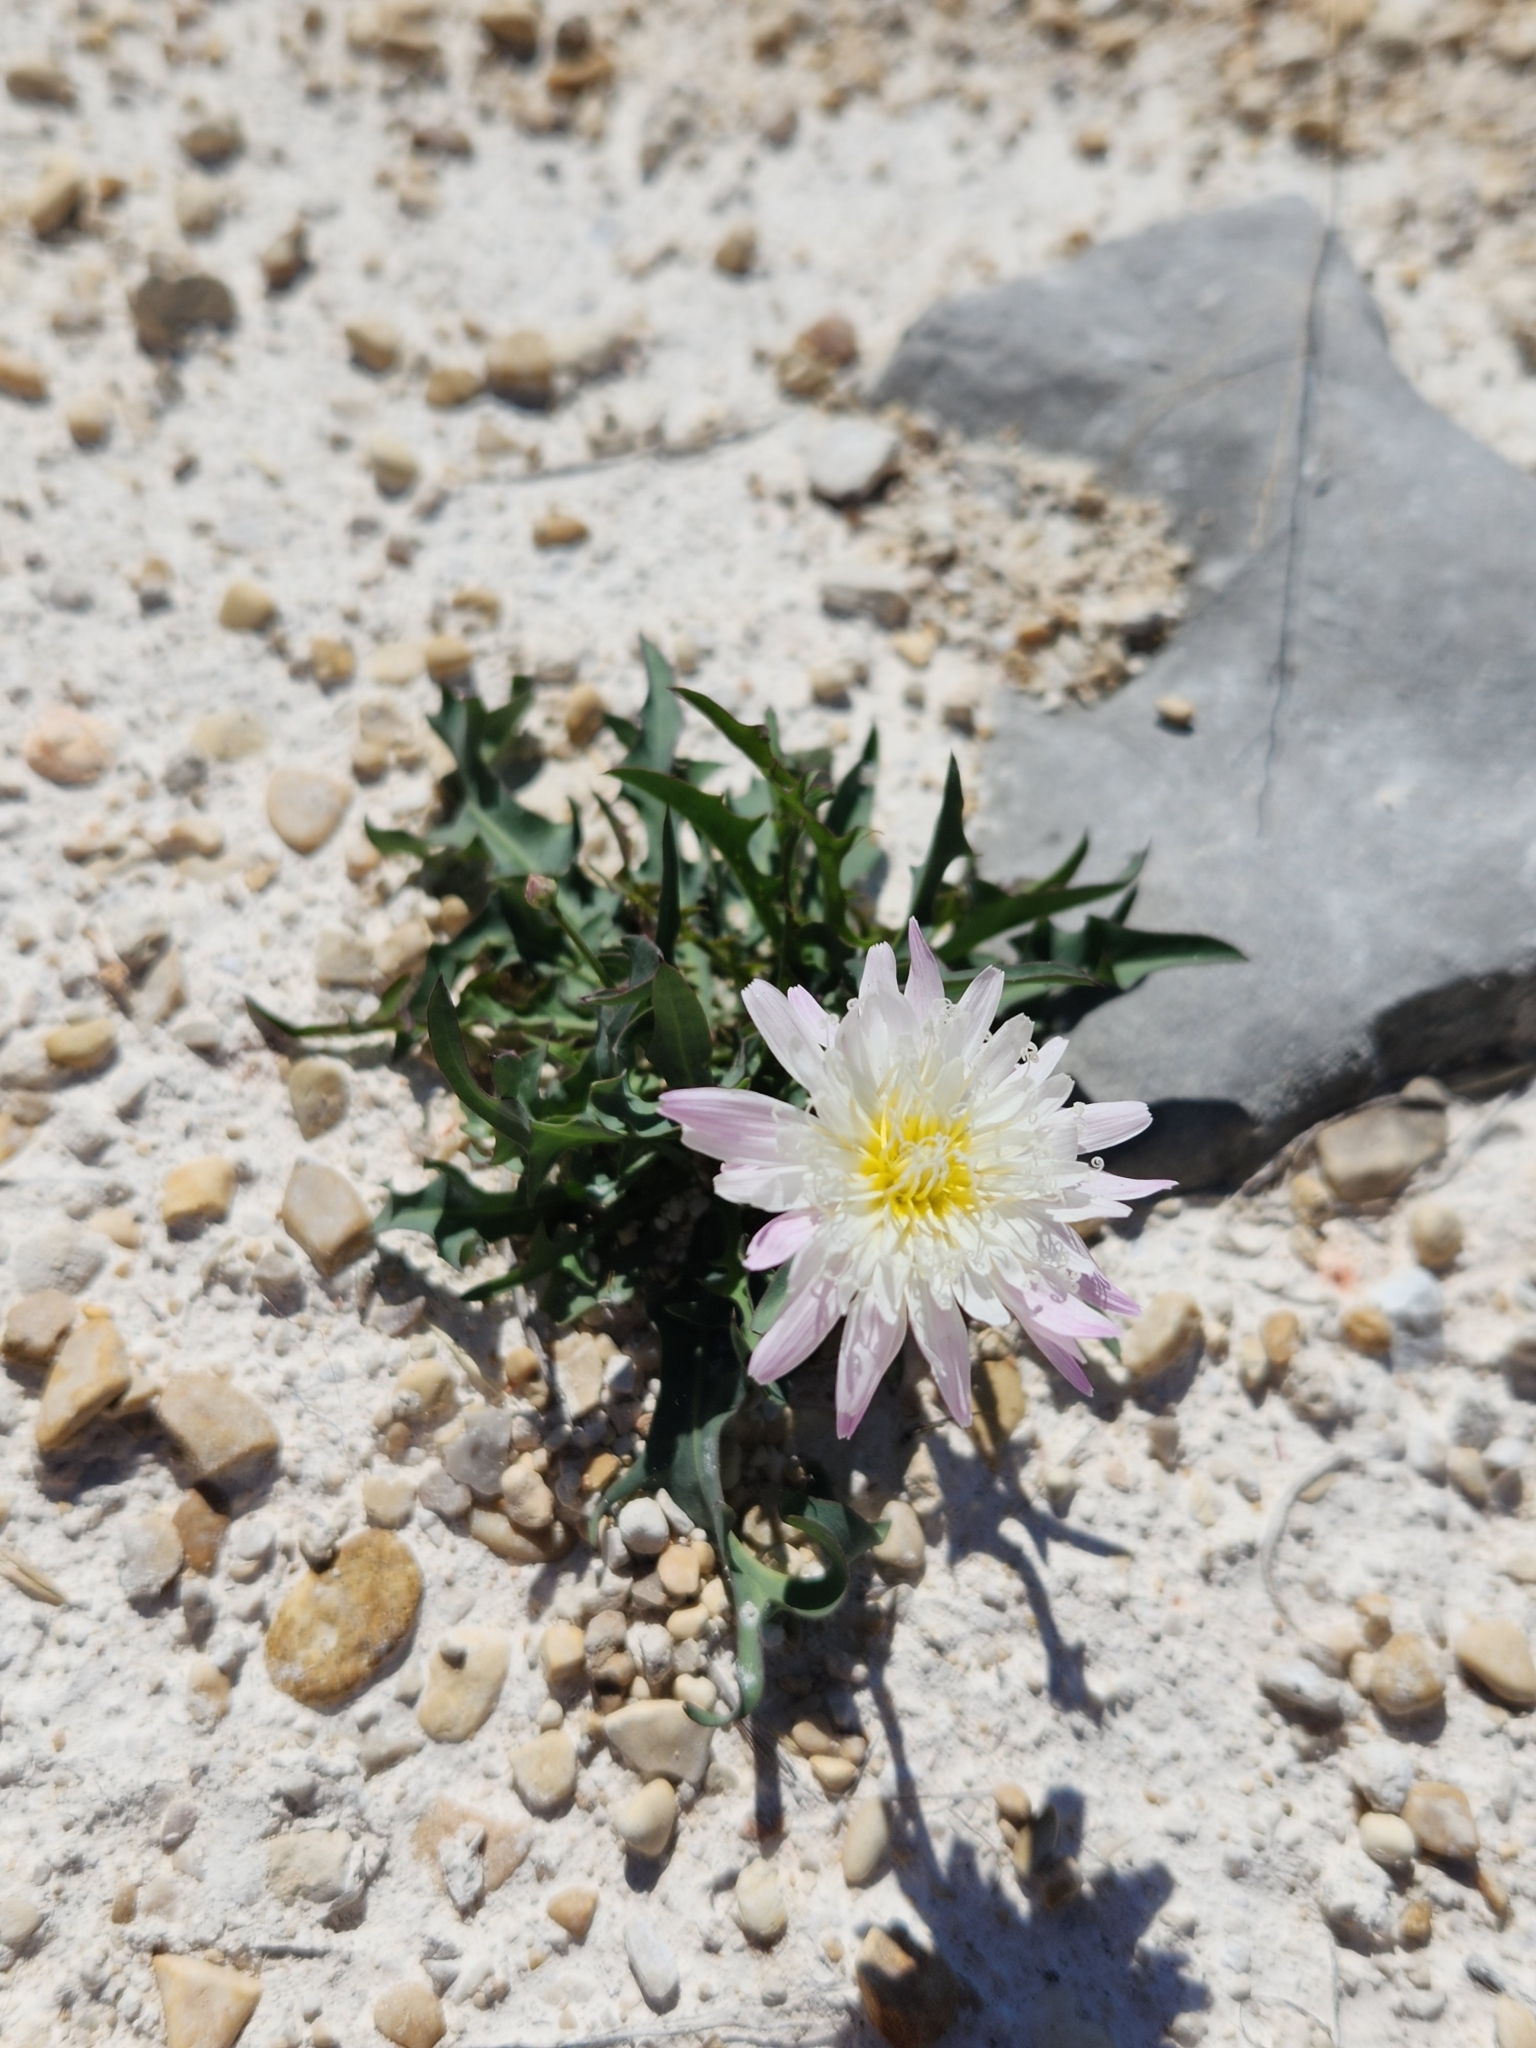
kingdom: Plantae
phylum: Tracheophyta
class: Magnoliopsida
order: Asterales
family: Asteraceae
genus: Pinaropappus
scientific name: Pinaropappus roseus
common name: Rock-lettuce
